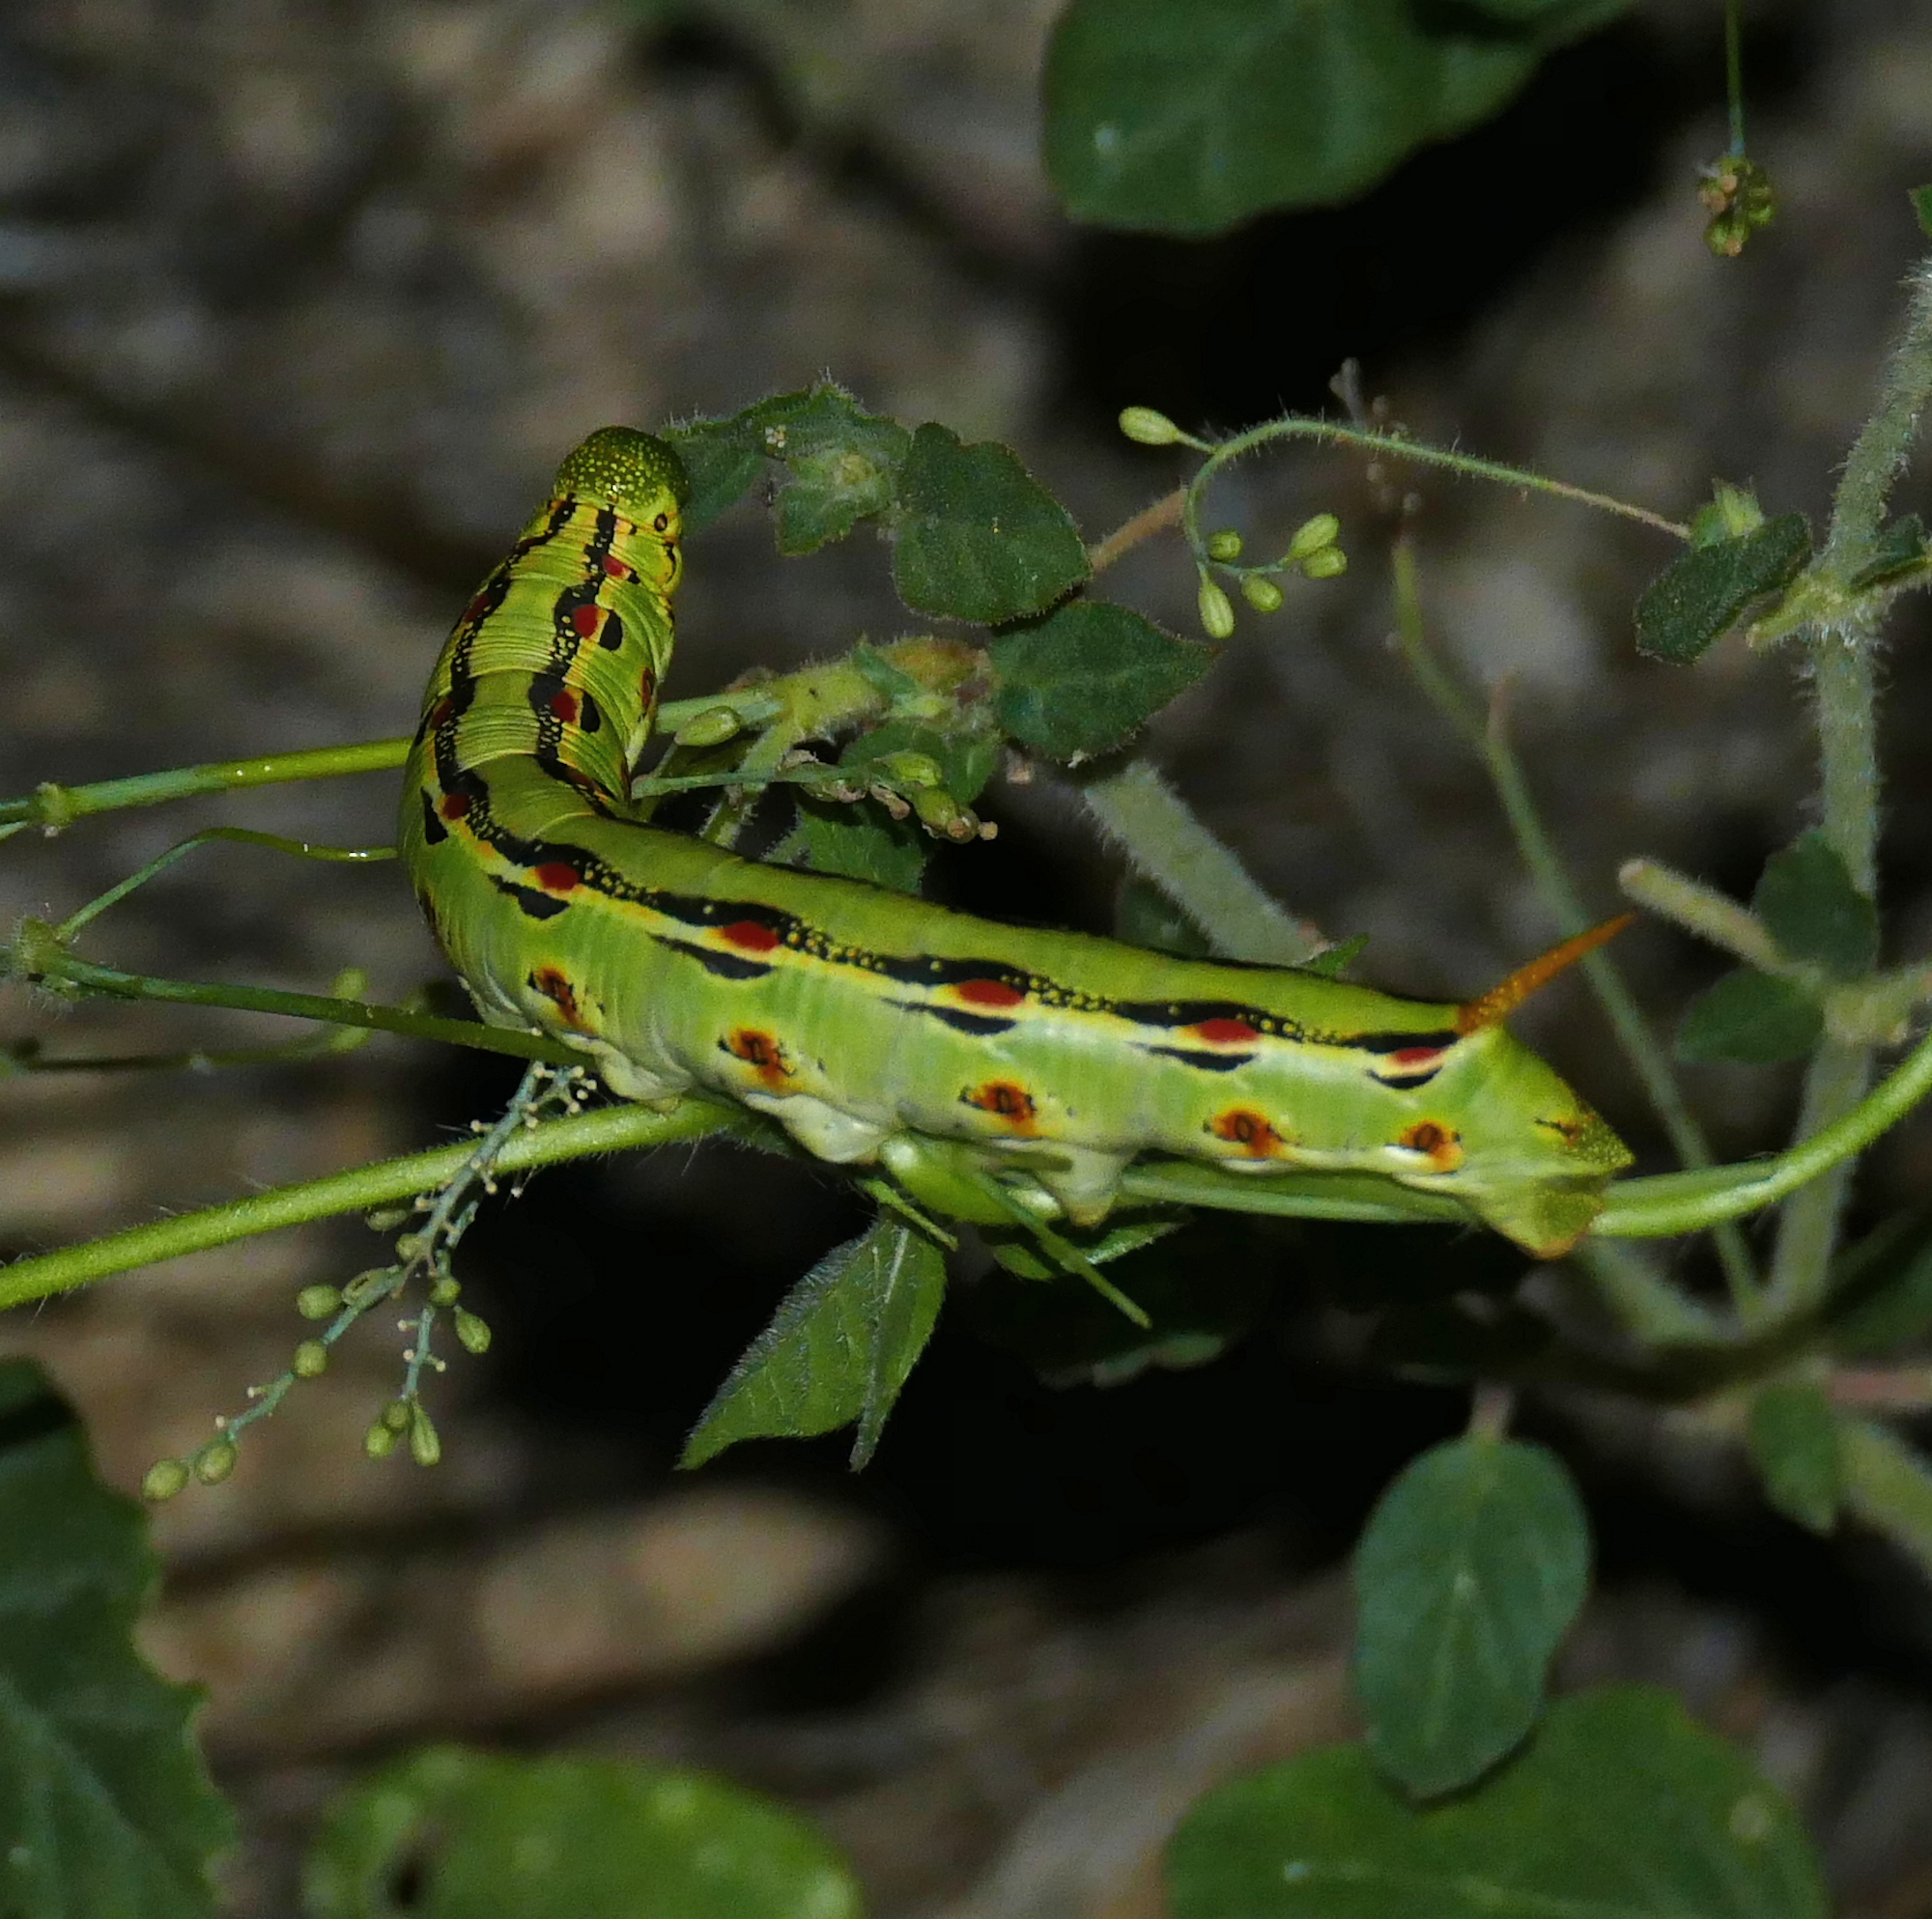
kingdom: Animalia
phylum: Arthropoda
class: Insecta
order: Lepidoptera
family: Sphingidae
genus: Hyles
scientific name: Hyles lineata
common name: White-lined sphinx
